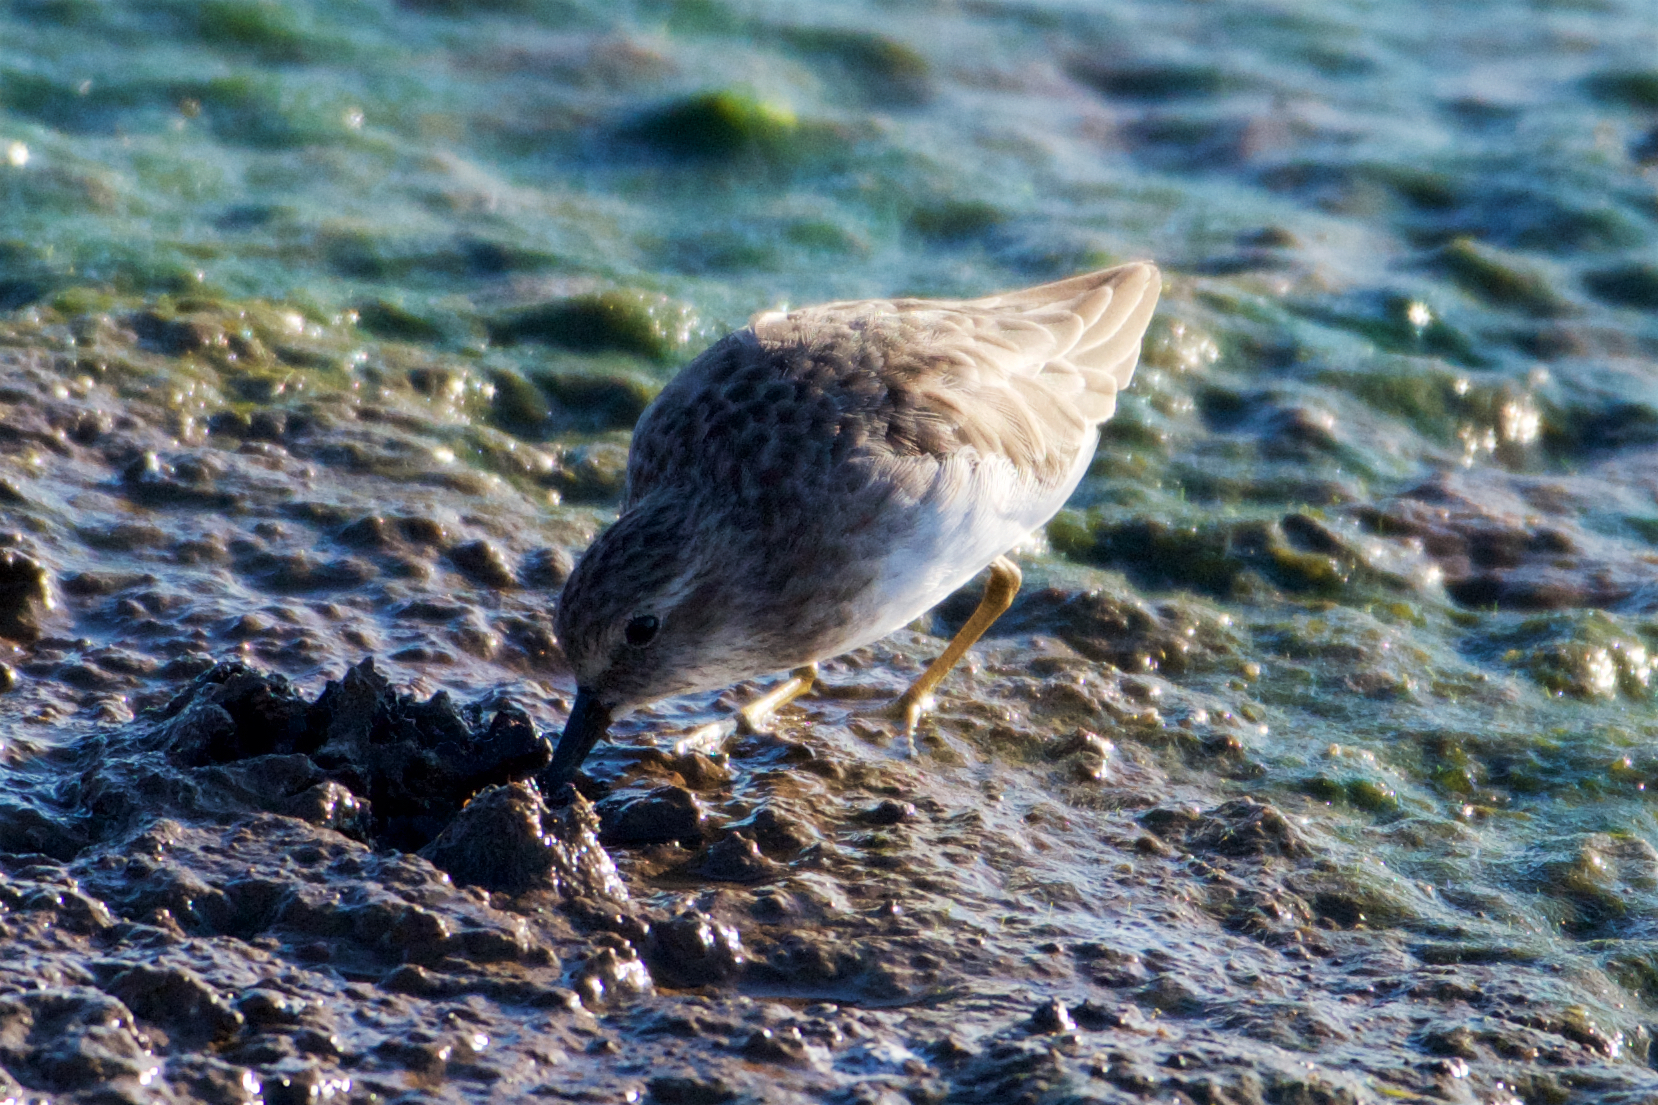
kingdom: Animalia
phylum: Chordata
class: Aves
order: Charadriiformes
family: Scolopacidae
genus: Calidris
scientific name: Calidris minutilla
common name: Least sandpiper
